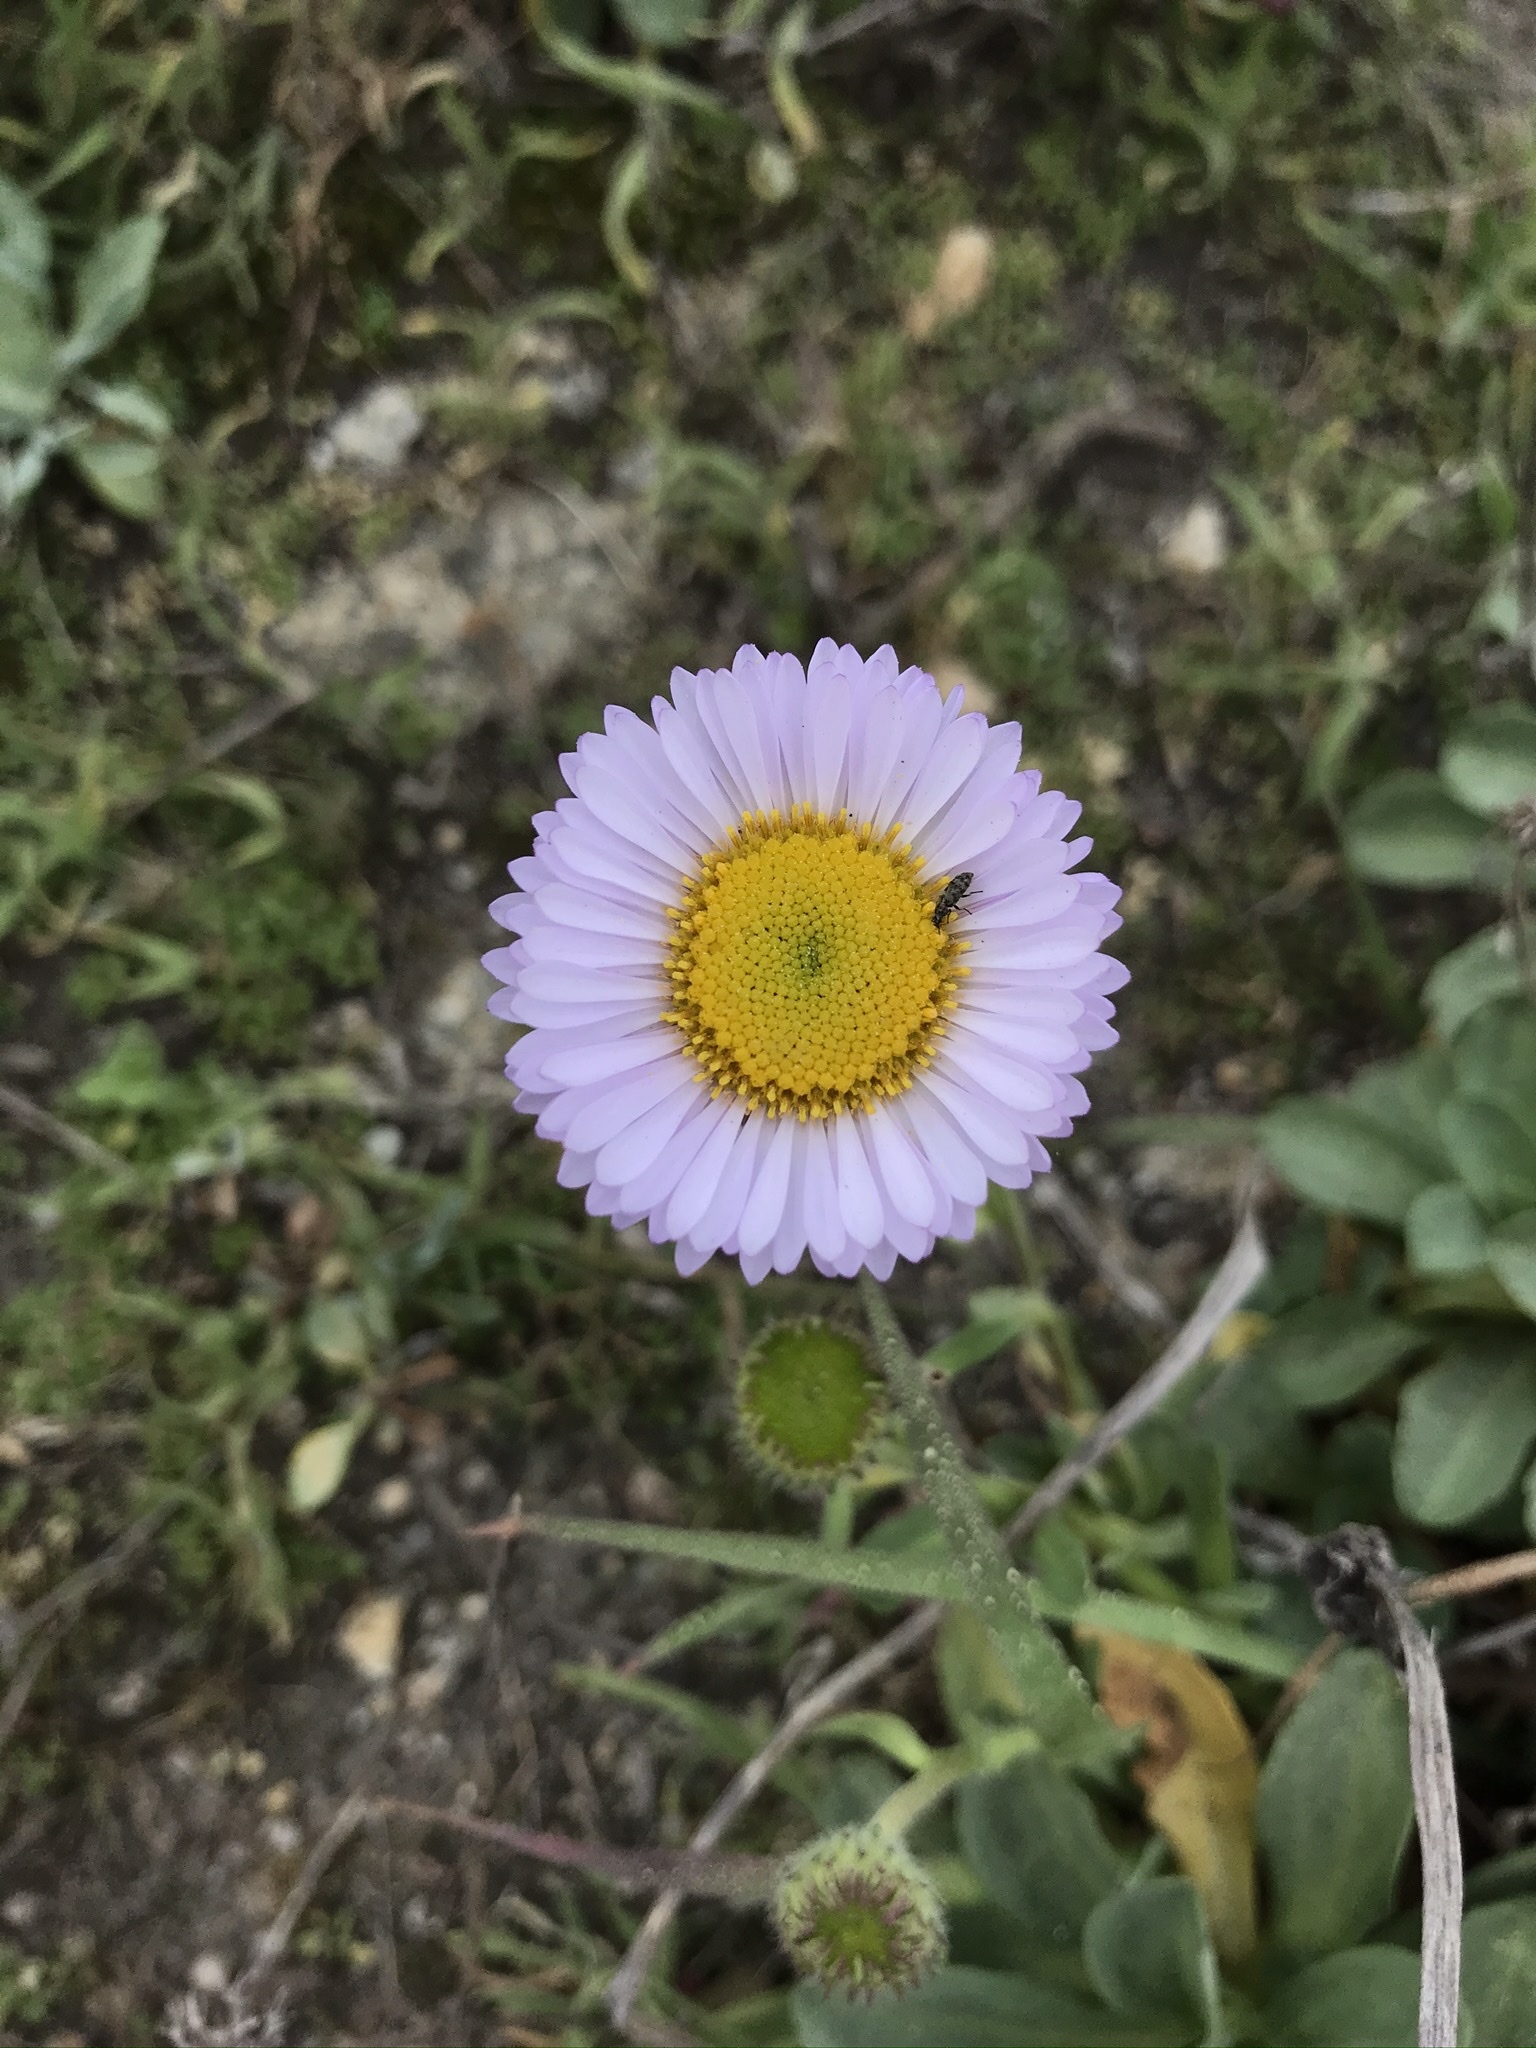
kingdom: Plantae
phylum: Tracheophyta
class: Magnoliopsida
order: Asterales
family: Asteraceae
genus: Erigeron
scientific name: Erigeron glaucus
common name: Seaside daisy
